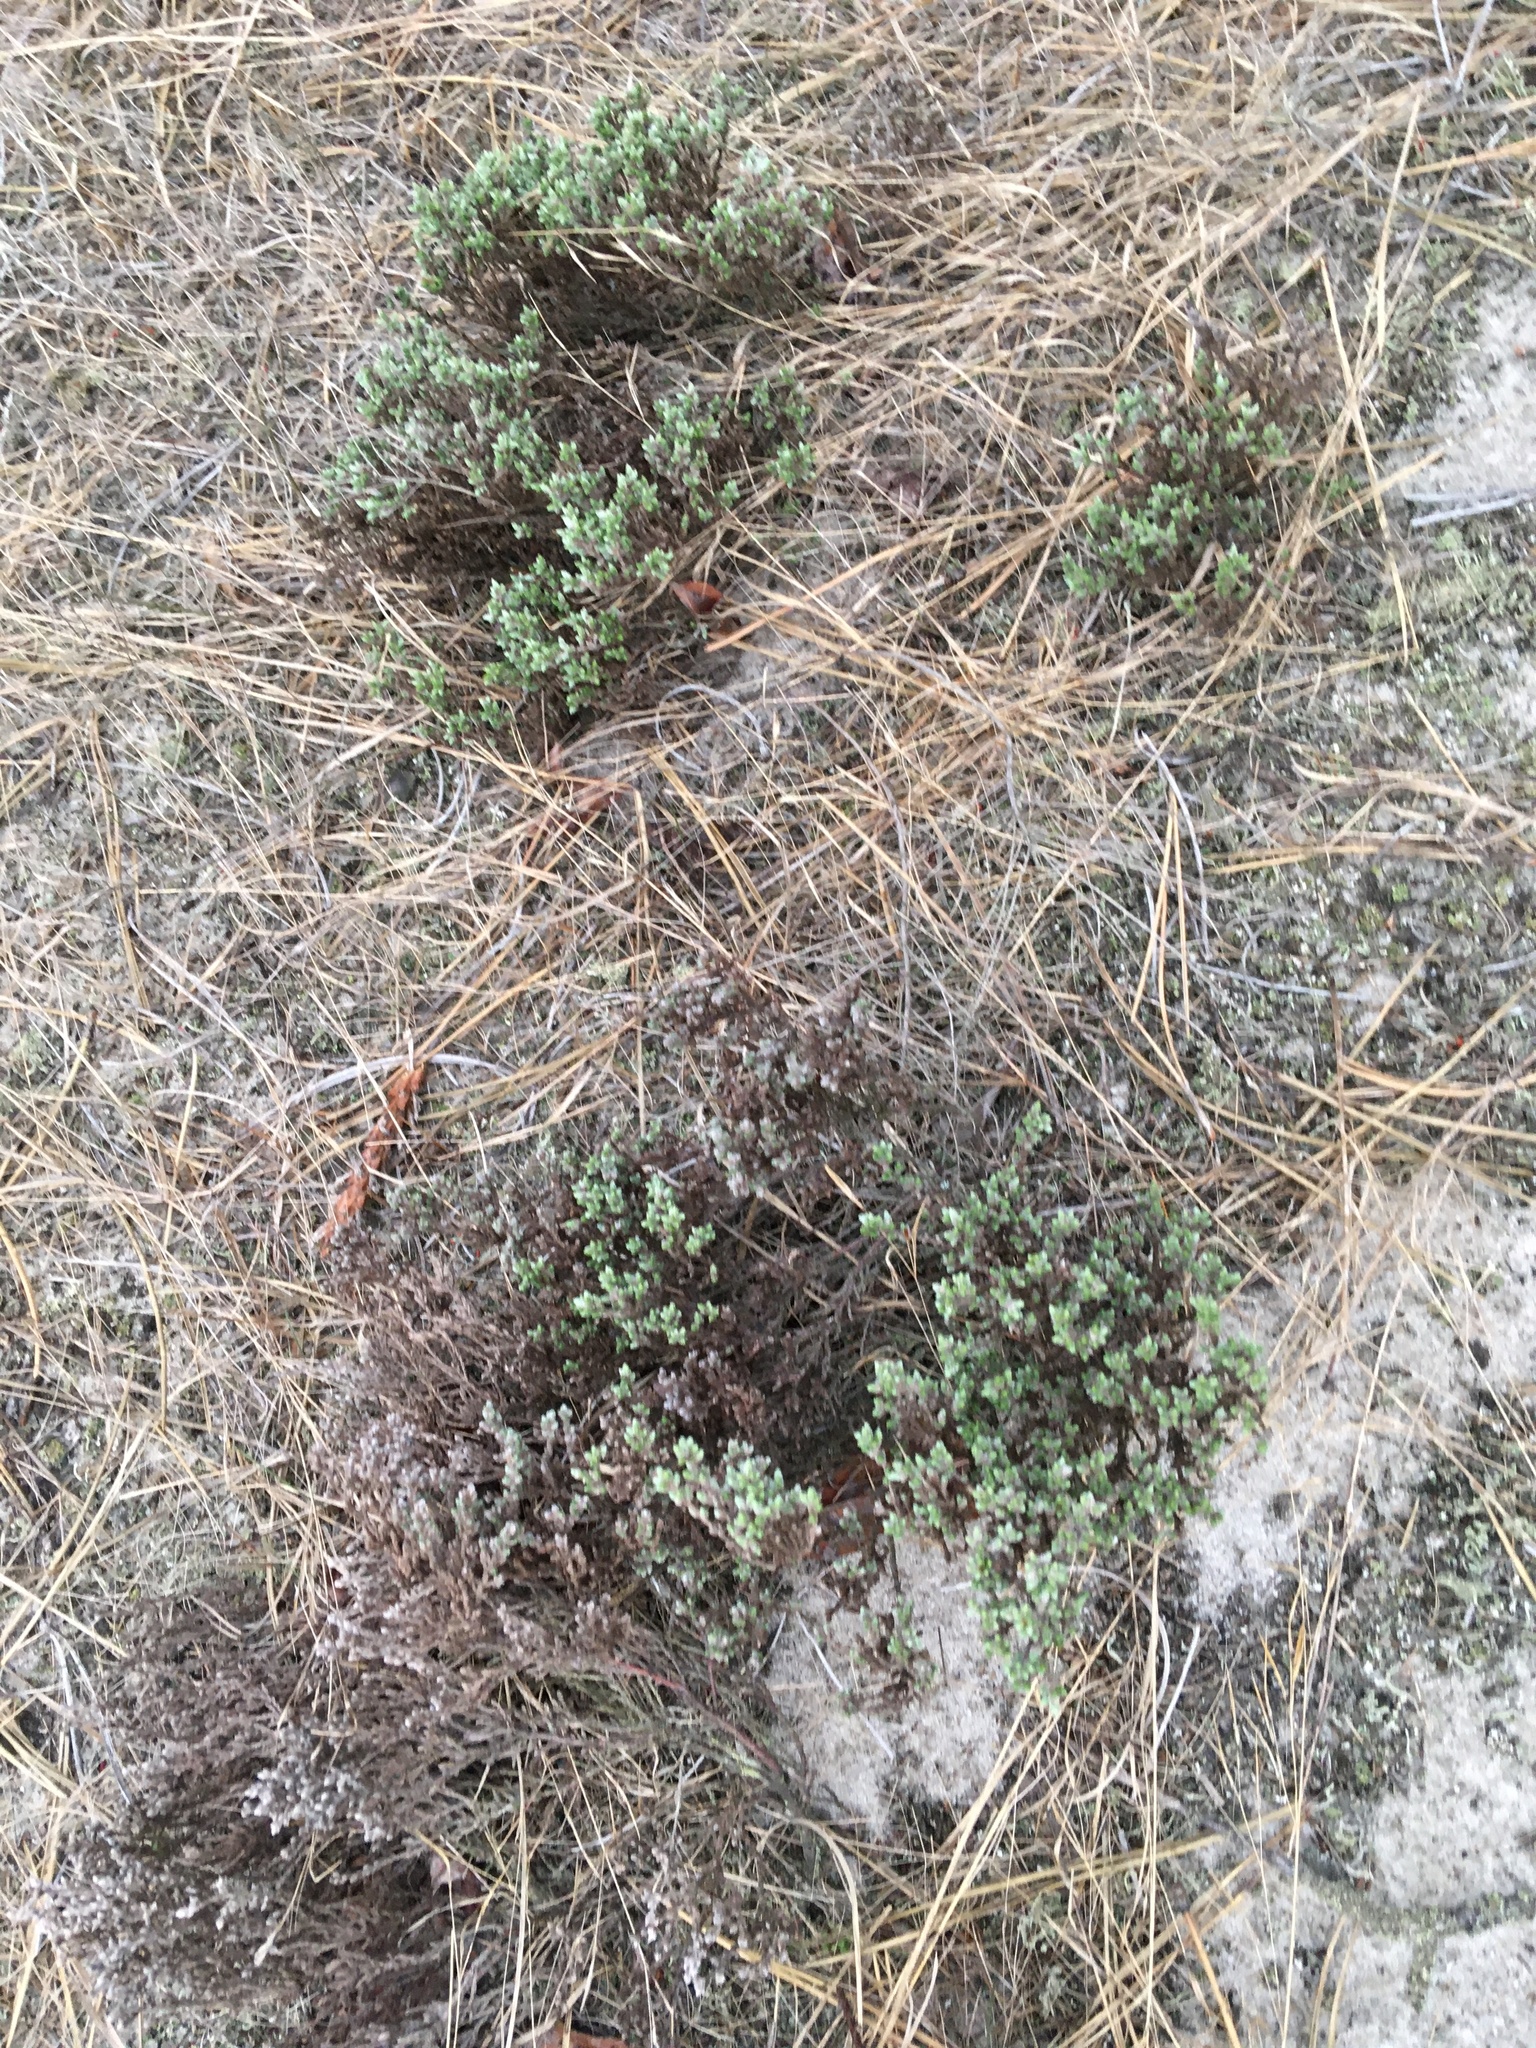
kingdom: Plantae
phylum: Tracheophyta
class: Magnoliopsida
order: Malvales
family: Cistaceae
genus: Hudsonia
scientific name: Hudsonia tomentosa
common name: Beach-heath
